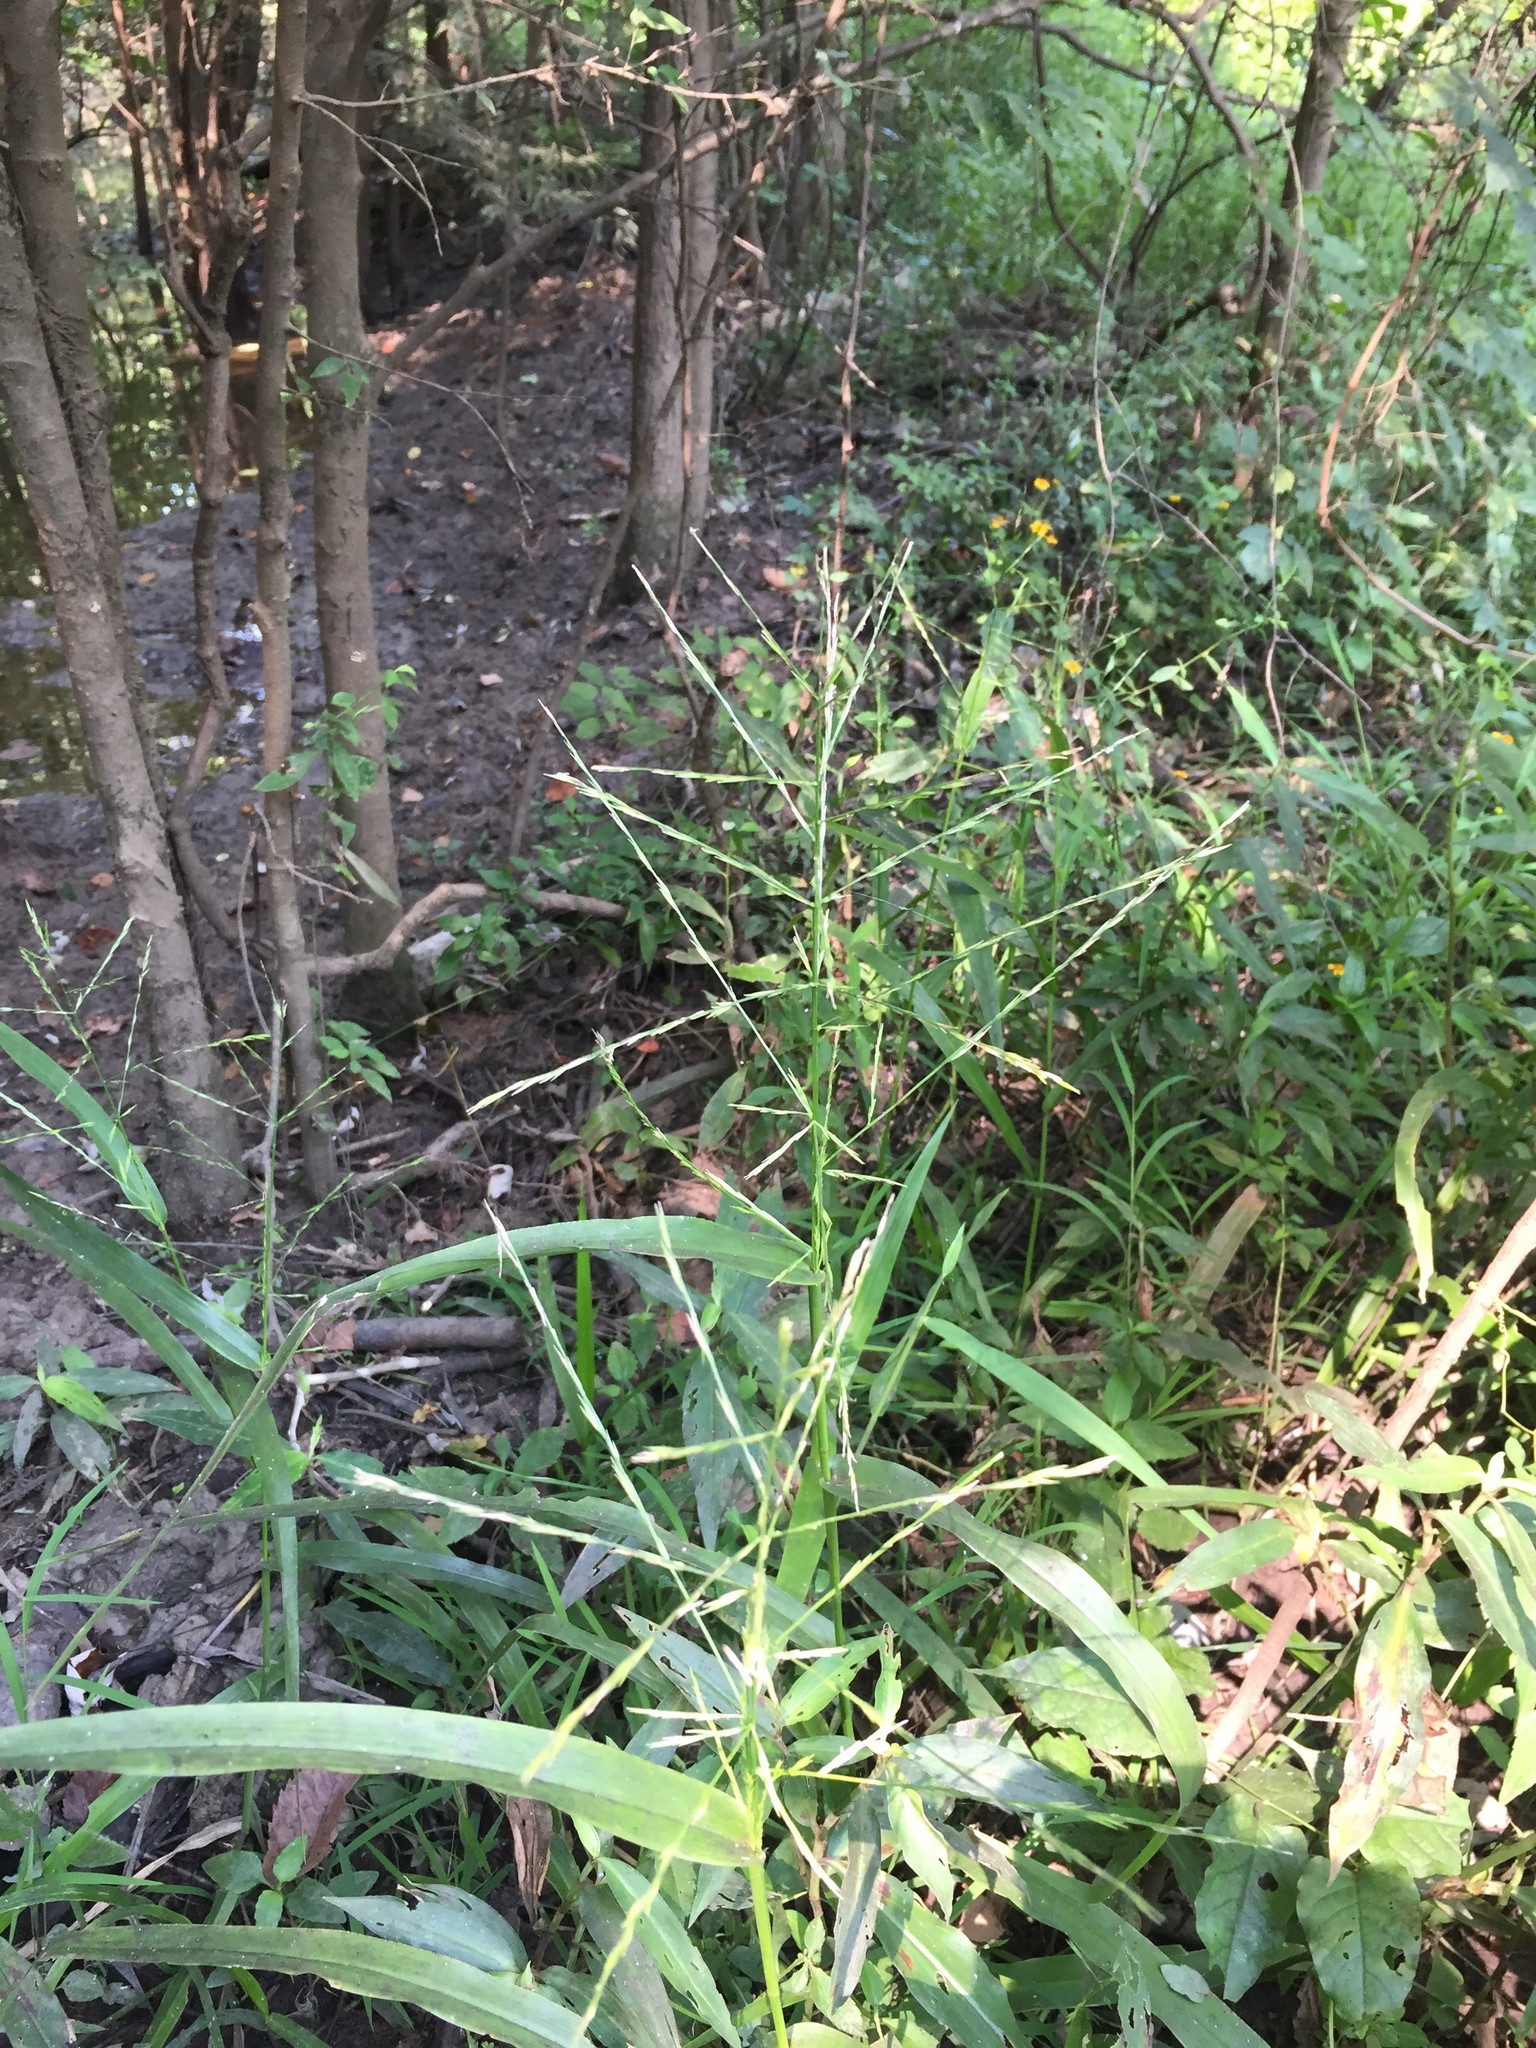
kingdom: Plantae
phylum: Tracheophyta
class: Liliopsida
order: Poales
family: Poaceae
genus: Panicum
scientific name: Panicum gymnocarpon
